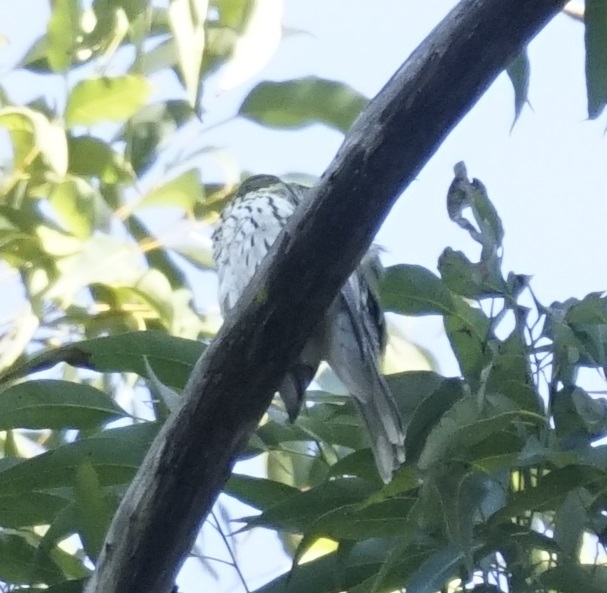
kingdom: Animalia
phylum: Chordata
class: Aves
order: Passeriformes
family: Oriolidae
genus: Oriolus
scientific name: Oriolus sagittatus
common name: Olive-backed oriole
